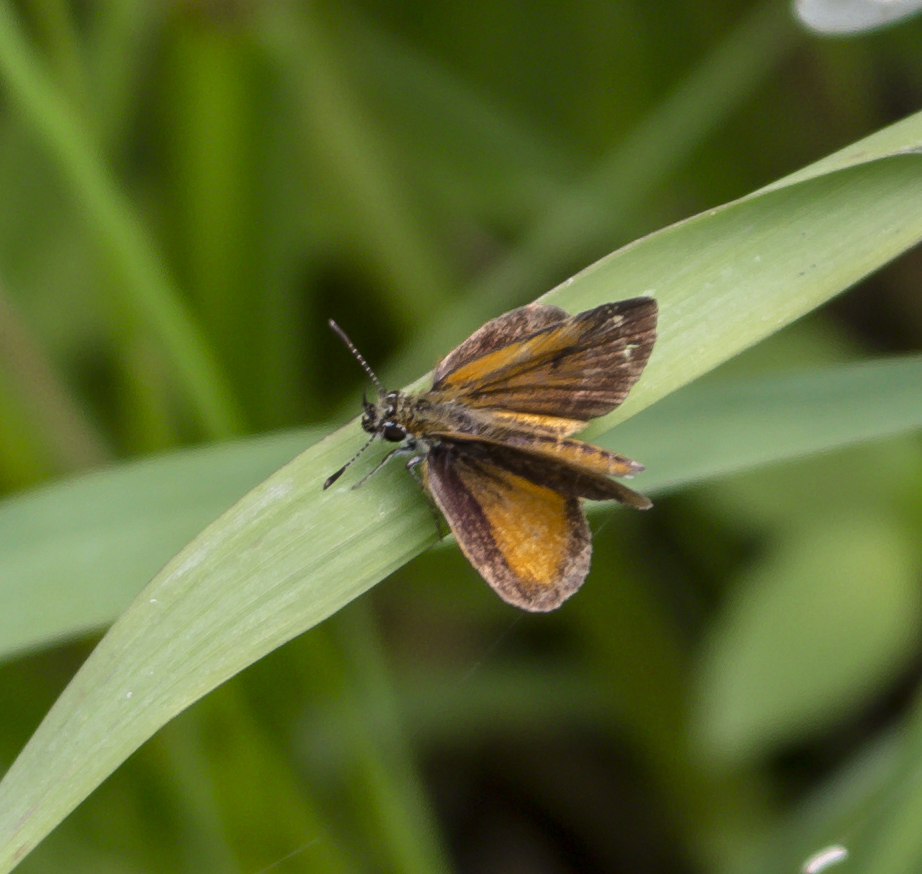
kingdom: Animalia
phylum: Arthropoda
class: Insecta
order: Lepidoptera
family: Hesperiidae
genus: Ancyloxypha
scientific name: Ancyloxypha numitor
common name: Least skipper
